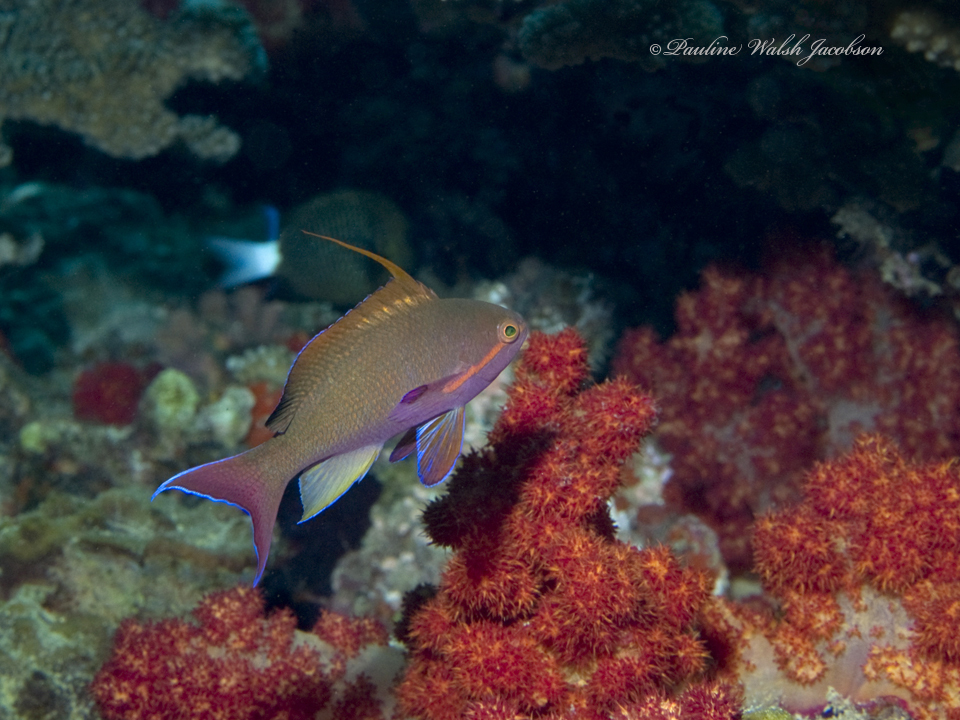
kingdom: Animalia
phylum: Chordata
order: Perciformes
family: Serranidae
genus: Pseudanthias
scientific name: Pseudanthias squamipinnis
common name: Scalefin anthias
